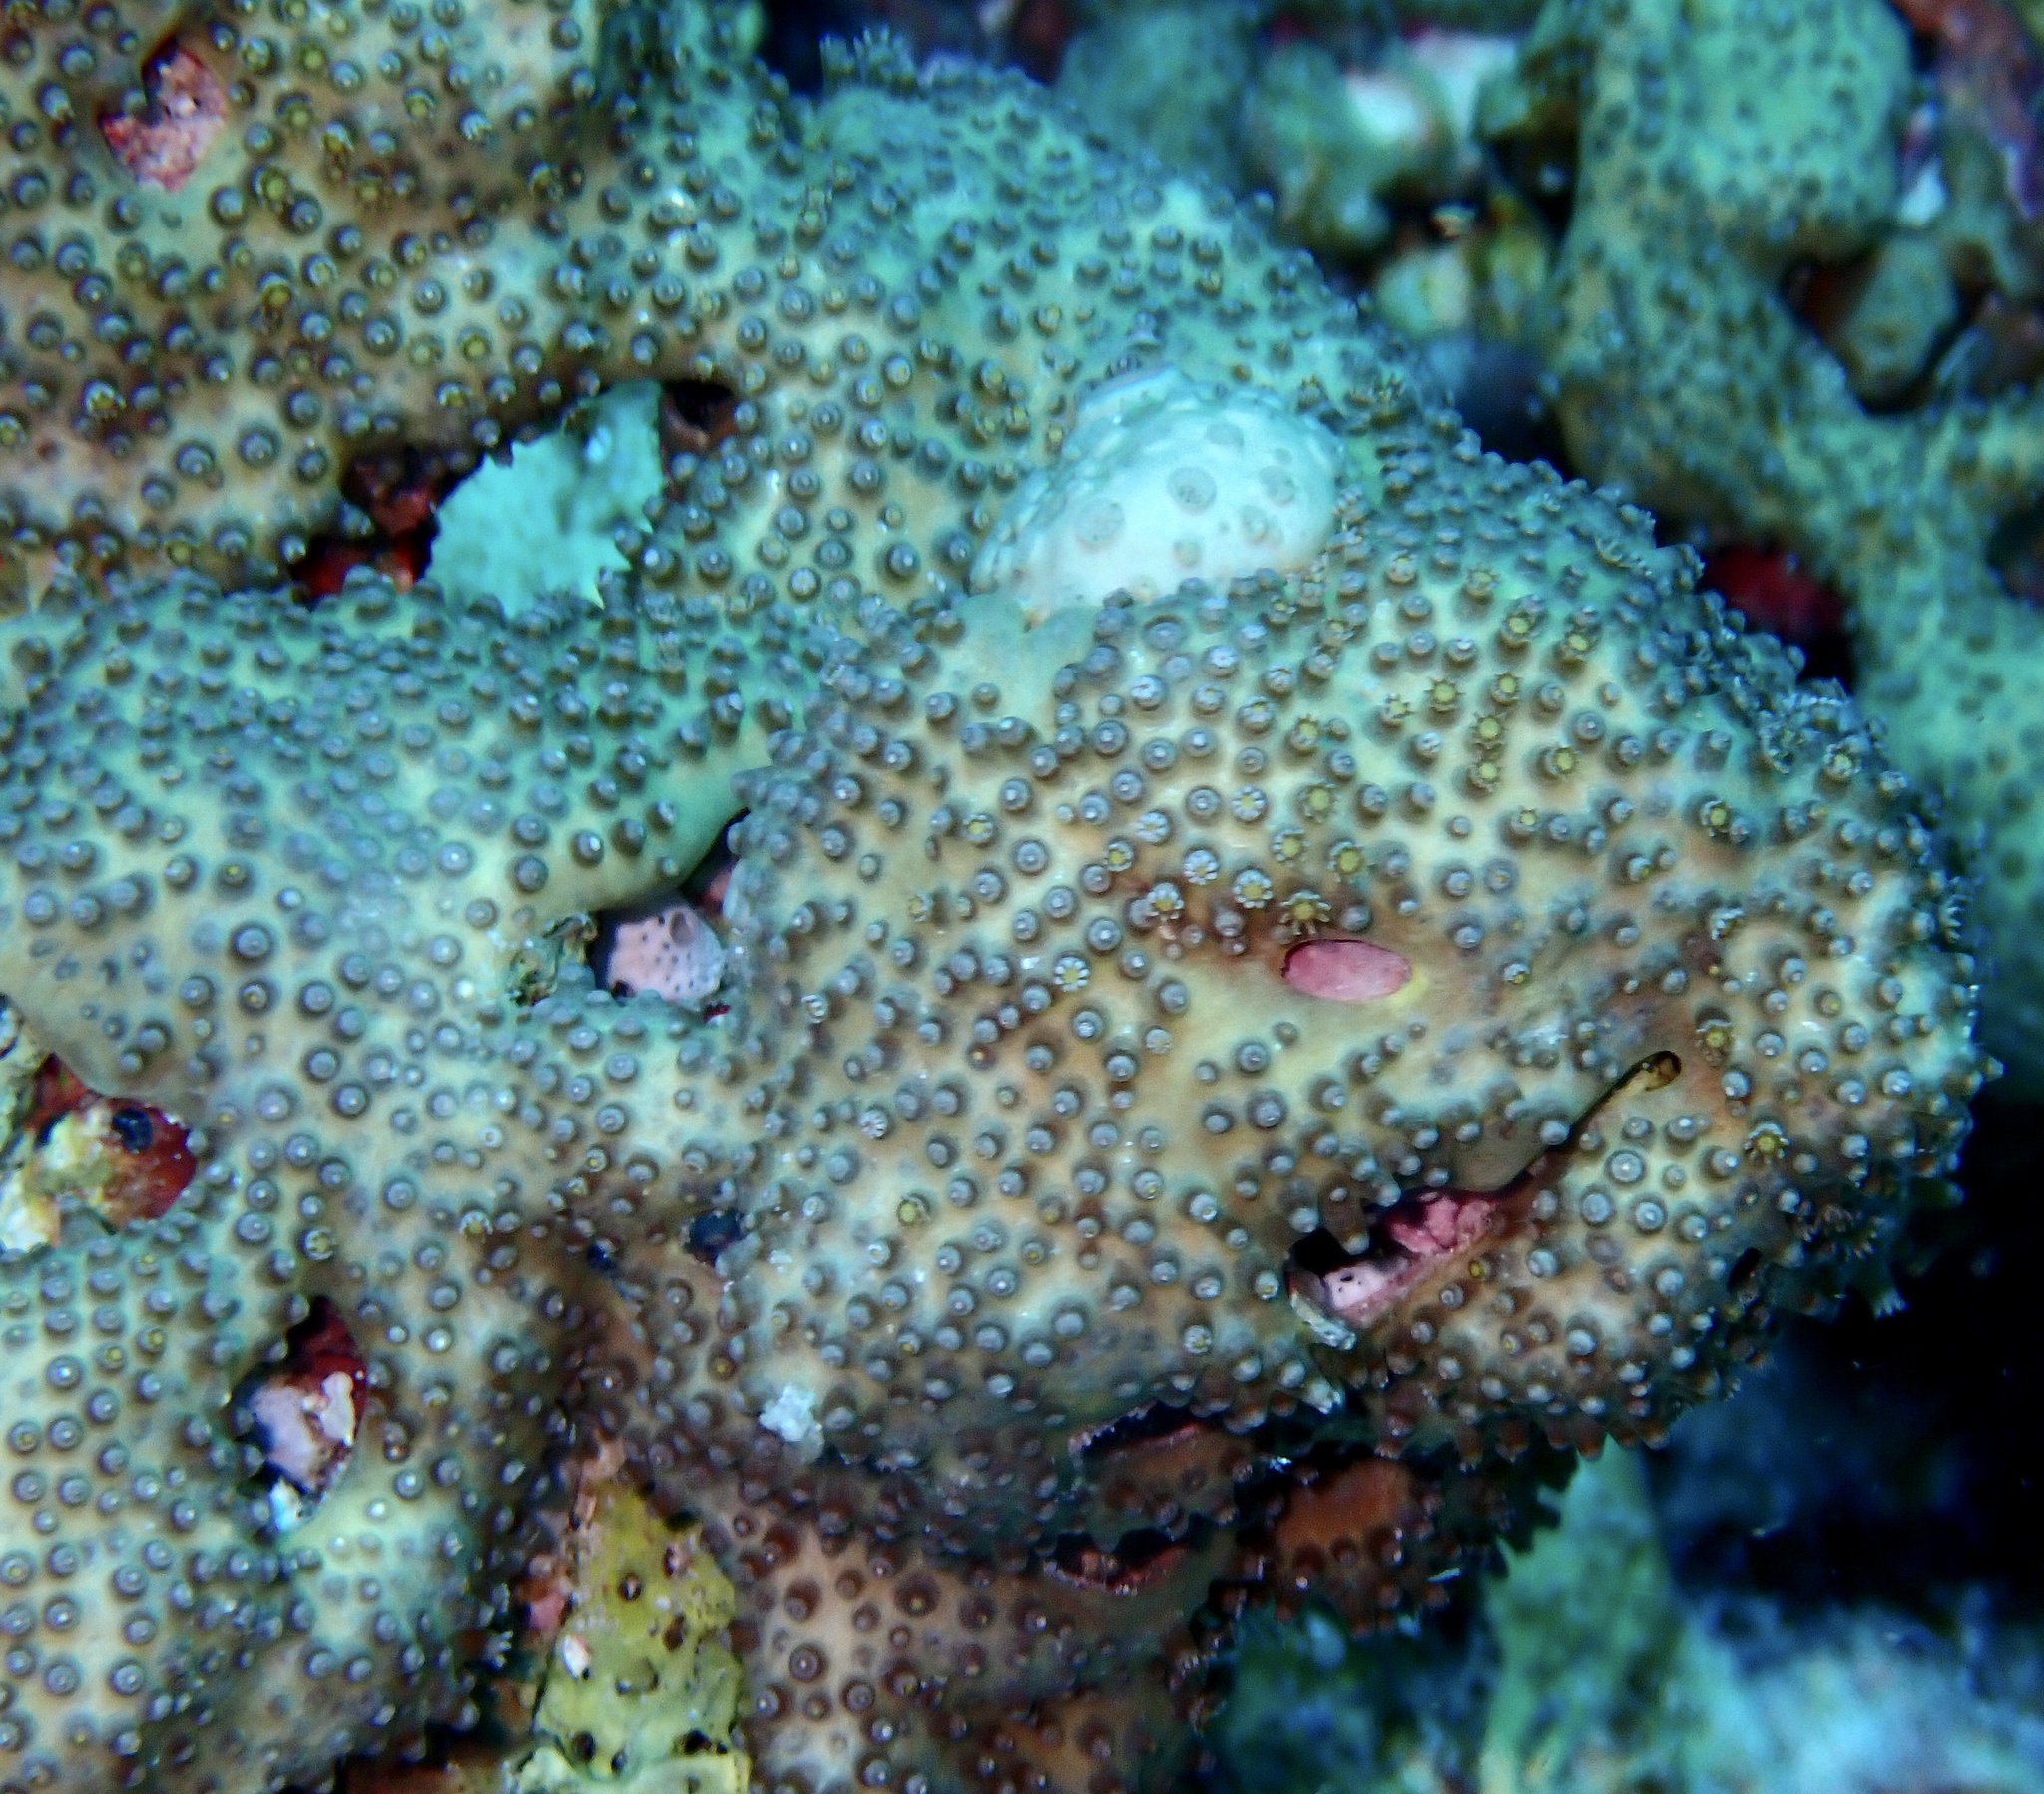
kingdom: Animalia
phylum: Cnidaria
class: Anthozoa
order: Malacalcyonacea
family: Lemnaliadae
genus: Rhytisma
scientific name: Rhytisma fulvum
